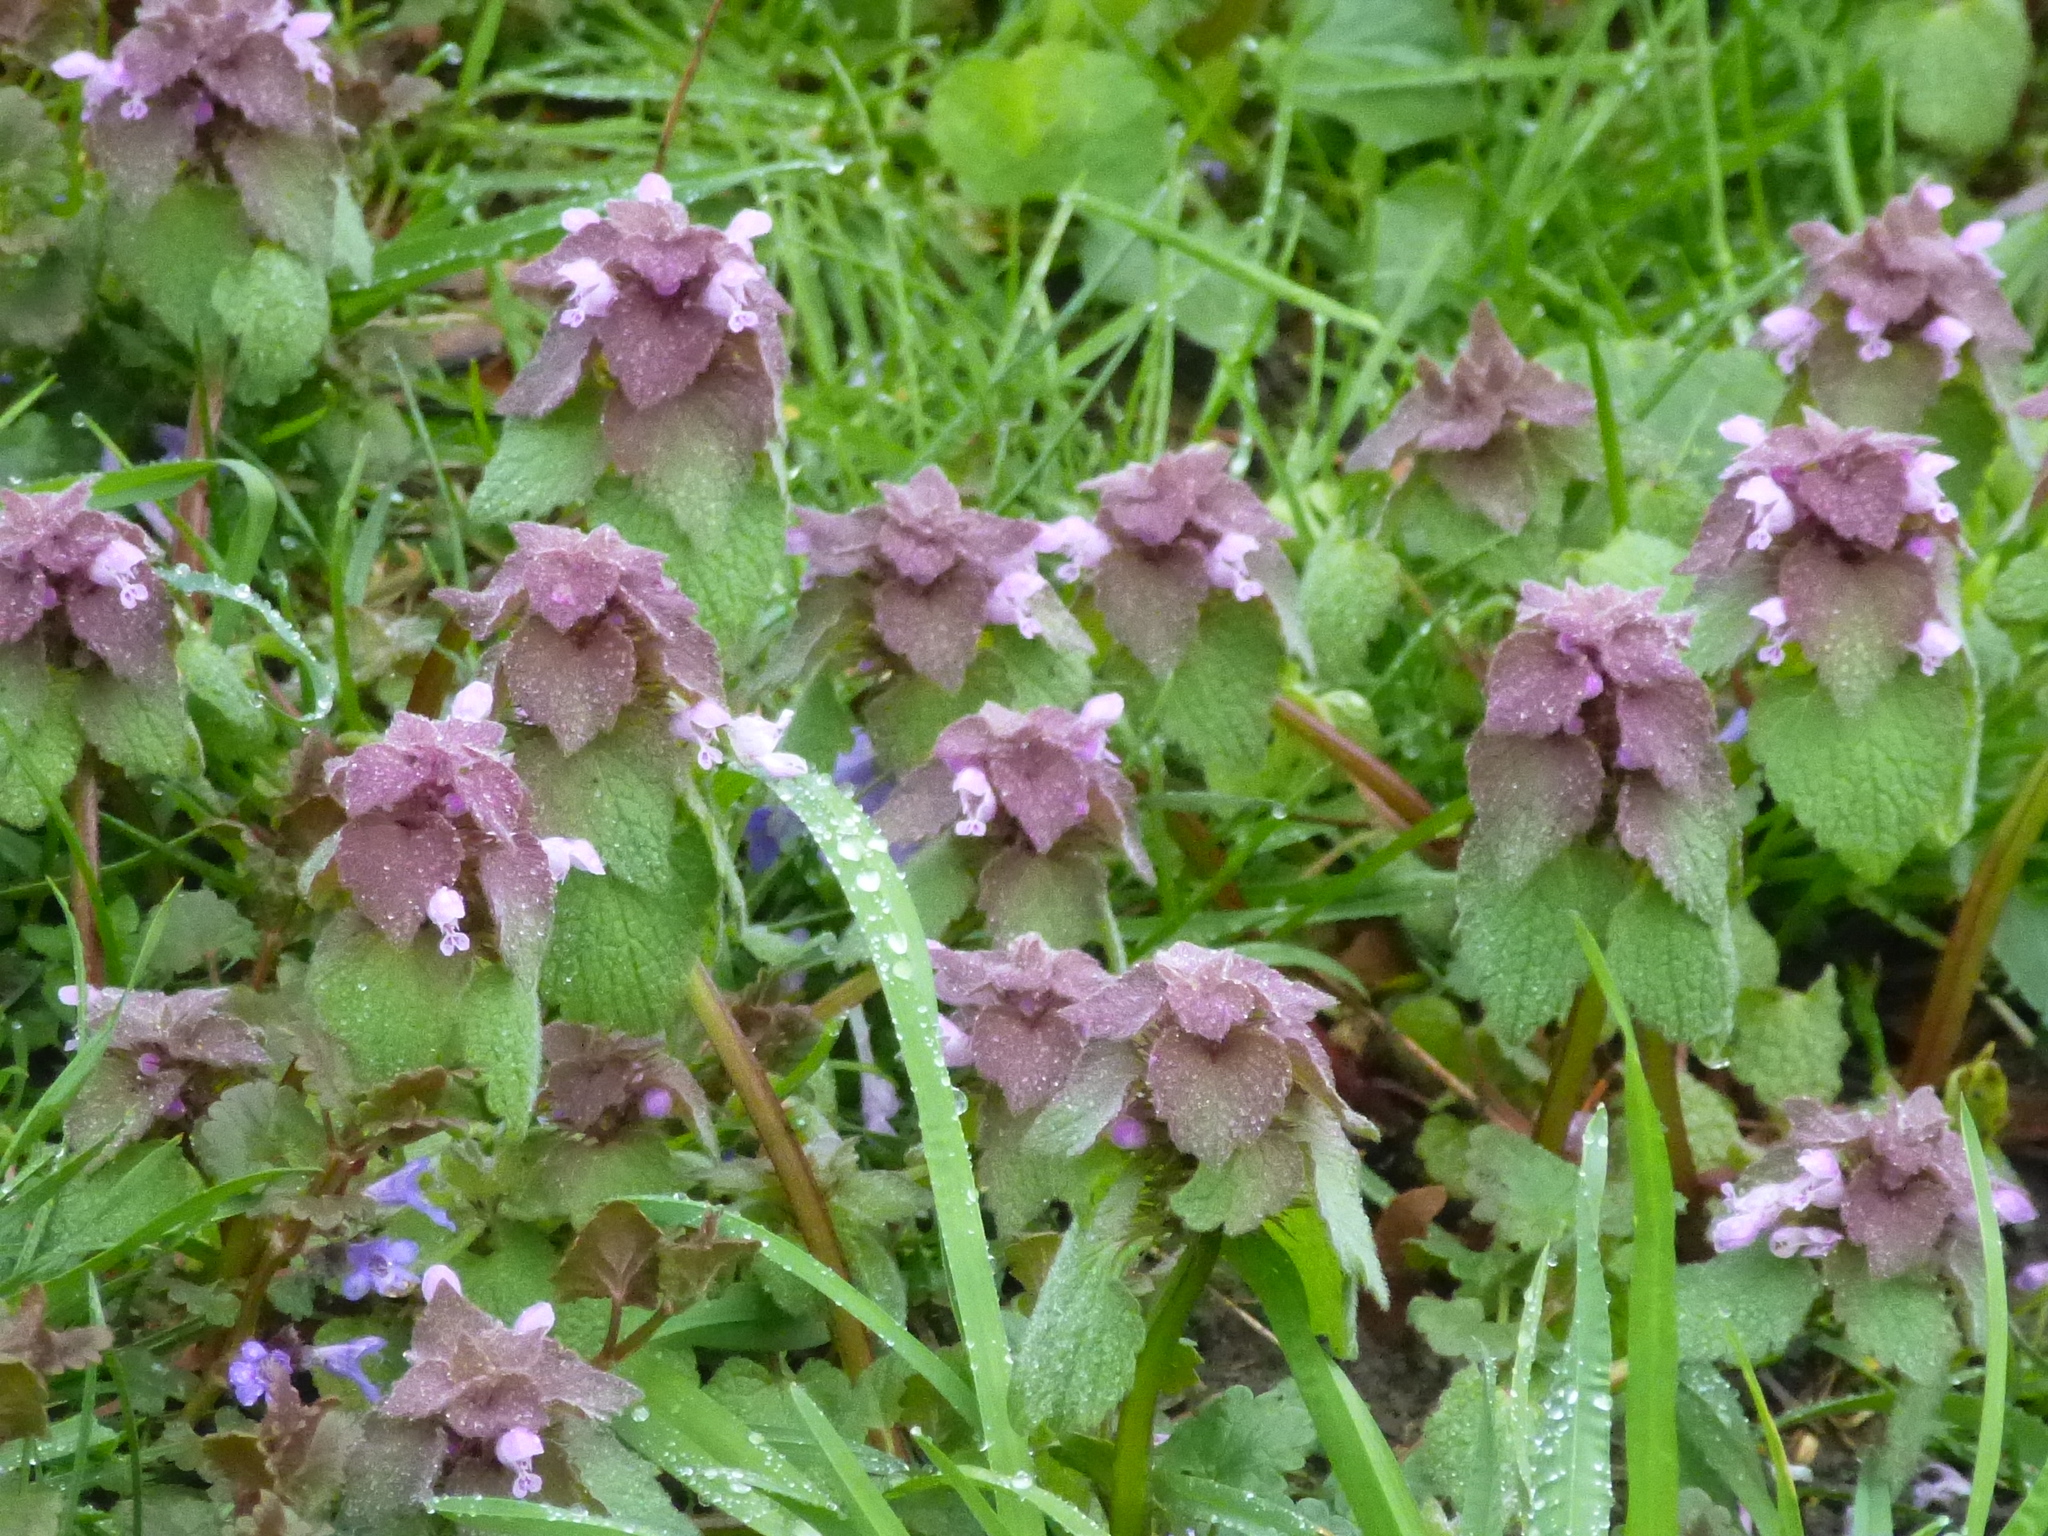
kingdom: Plantae
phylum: Tracheophyta
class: Magnoliopsida
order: Lamiales
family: Lamiaceae
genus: Lamium
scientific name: Lamium purpureum
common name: Red dead-nettle
